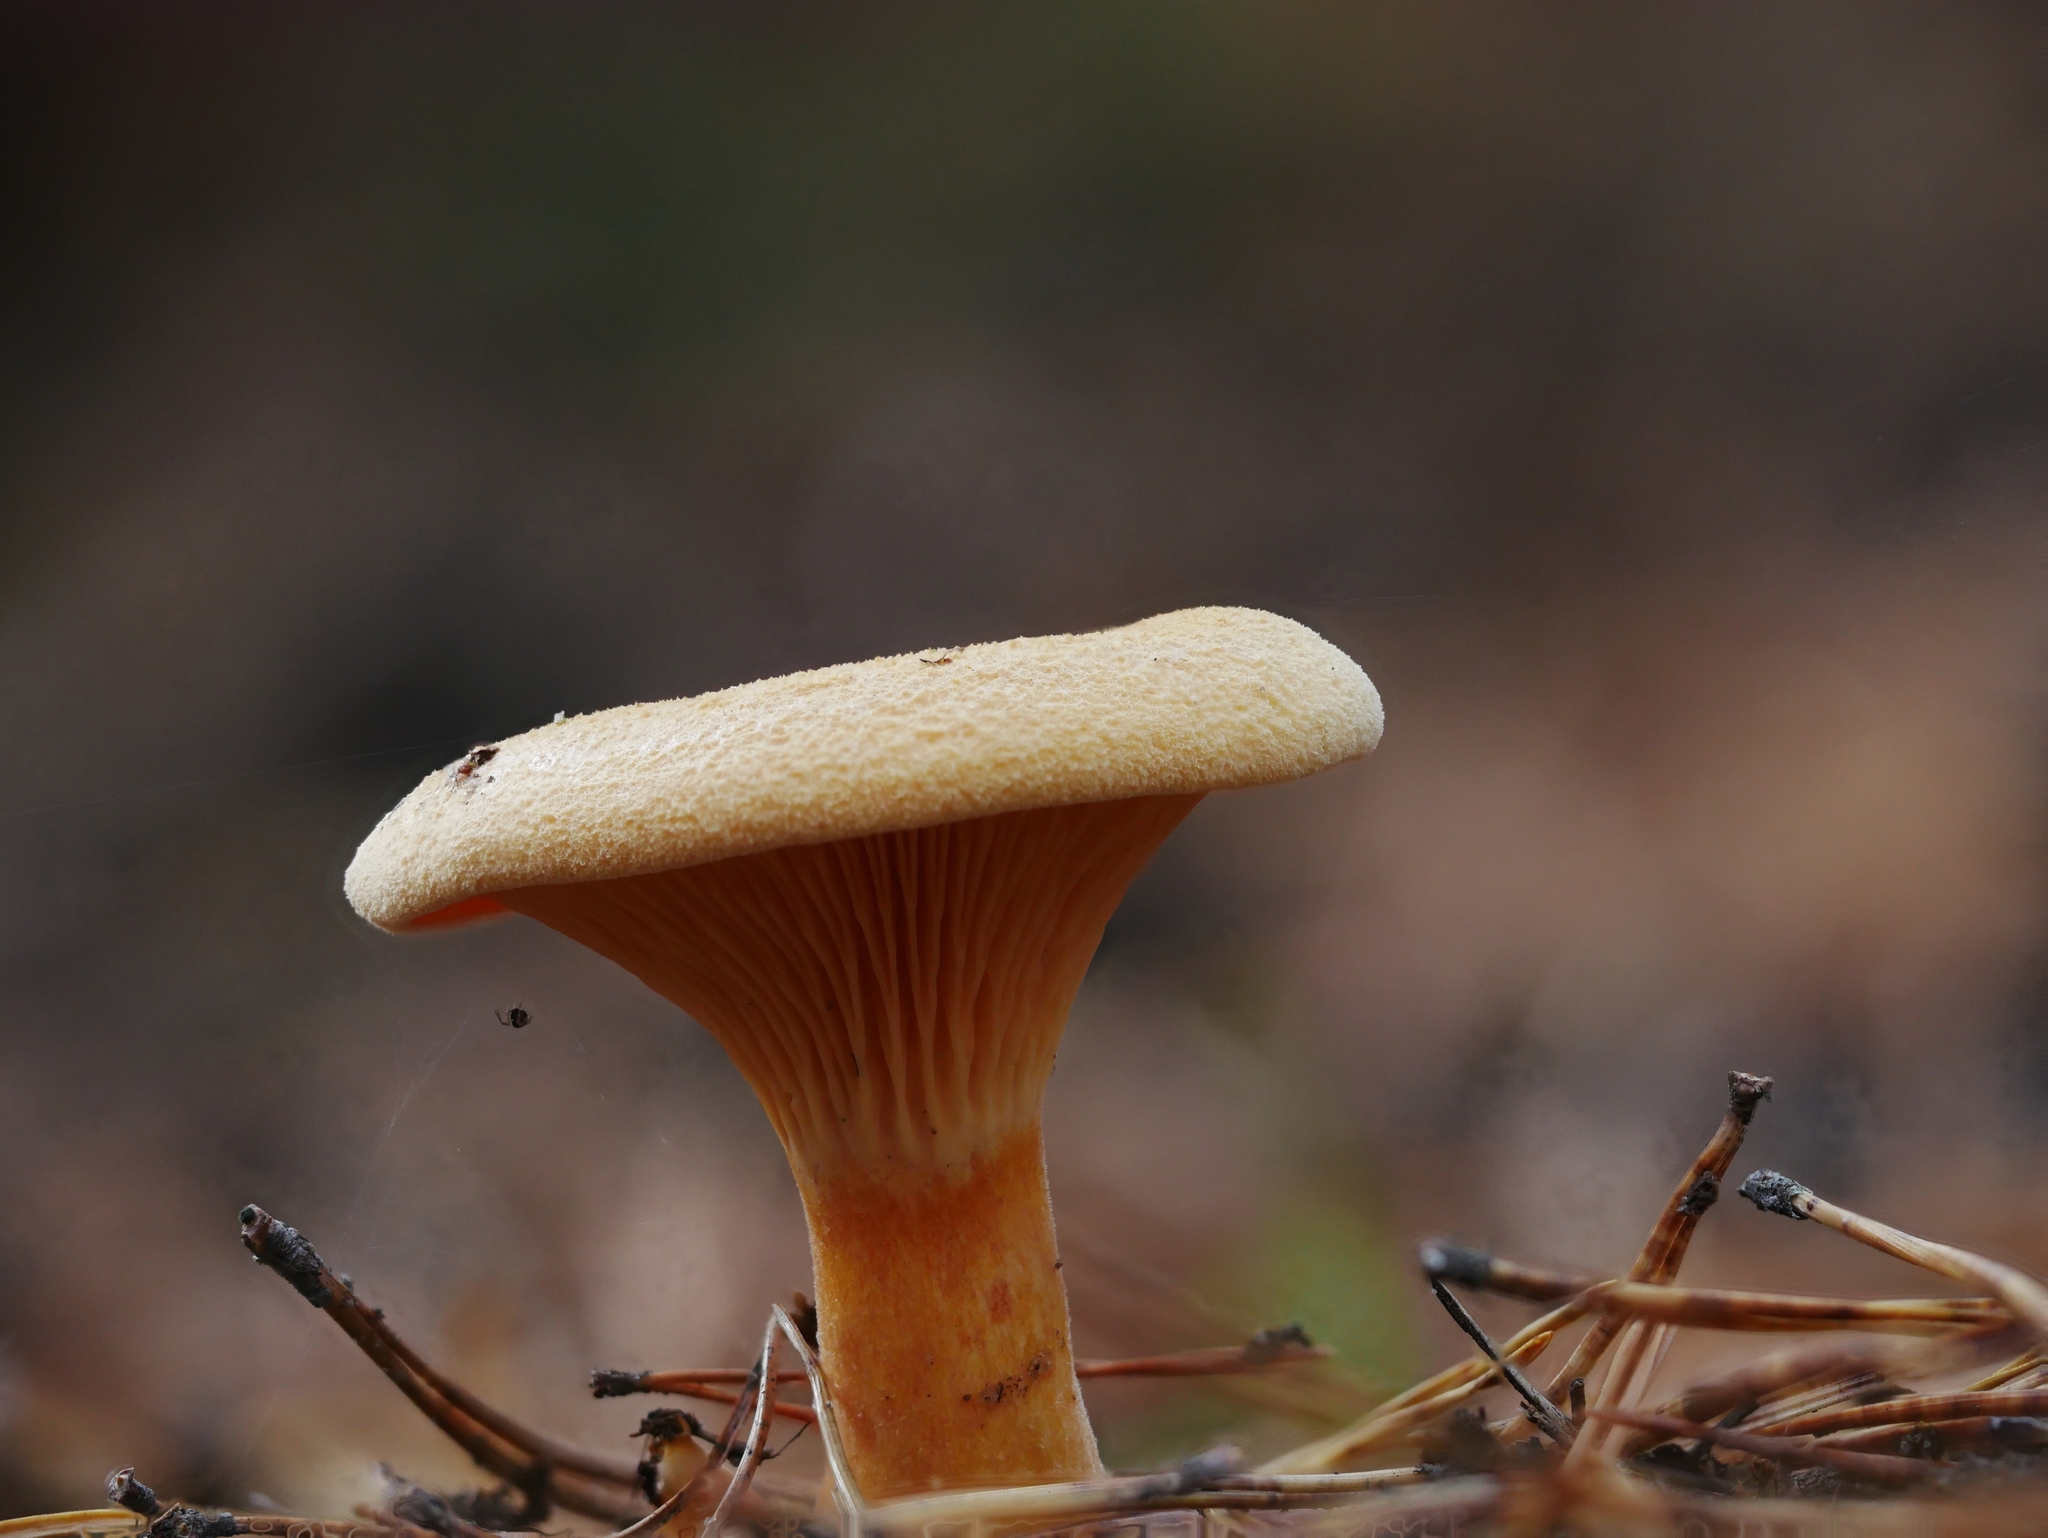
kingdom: Fungi
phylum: Basidiomycota
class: Agaricomycetes
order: Boletales
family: Hygrophoropsidaceae
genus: Hygrophoropsis
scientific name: Hygrophoropsis aurantiaca
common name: False chanterelle
